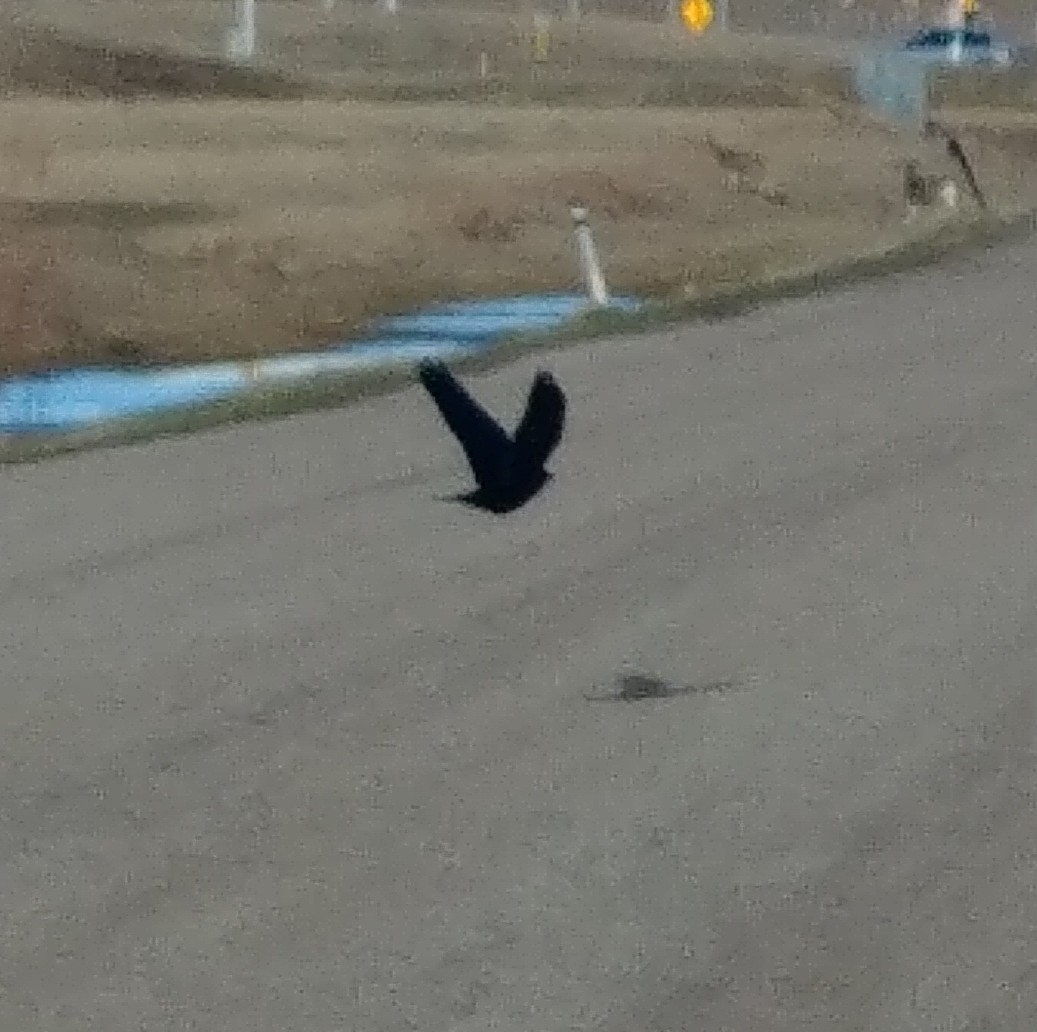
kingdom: Animalia
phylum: Chordata
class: Aves
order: Passeriformes
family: Corvidae
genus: Corvus
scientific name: Corvus brachyrhynchos
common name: American crow
